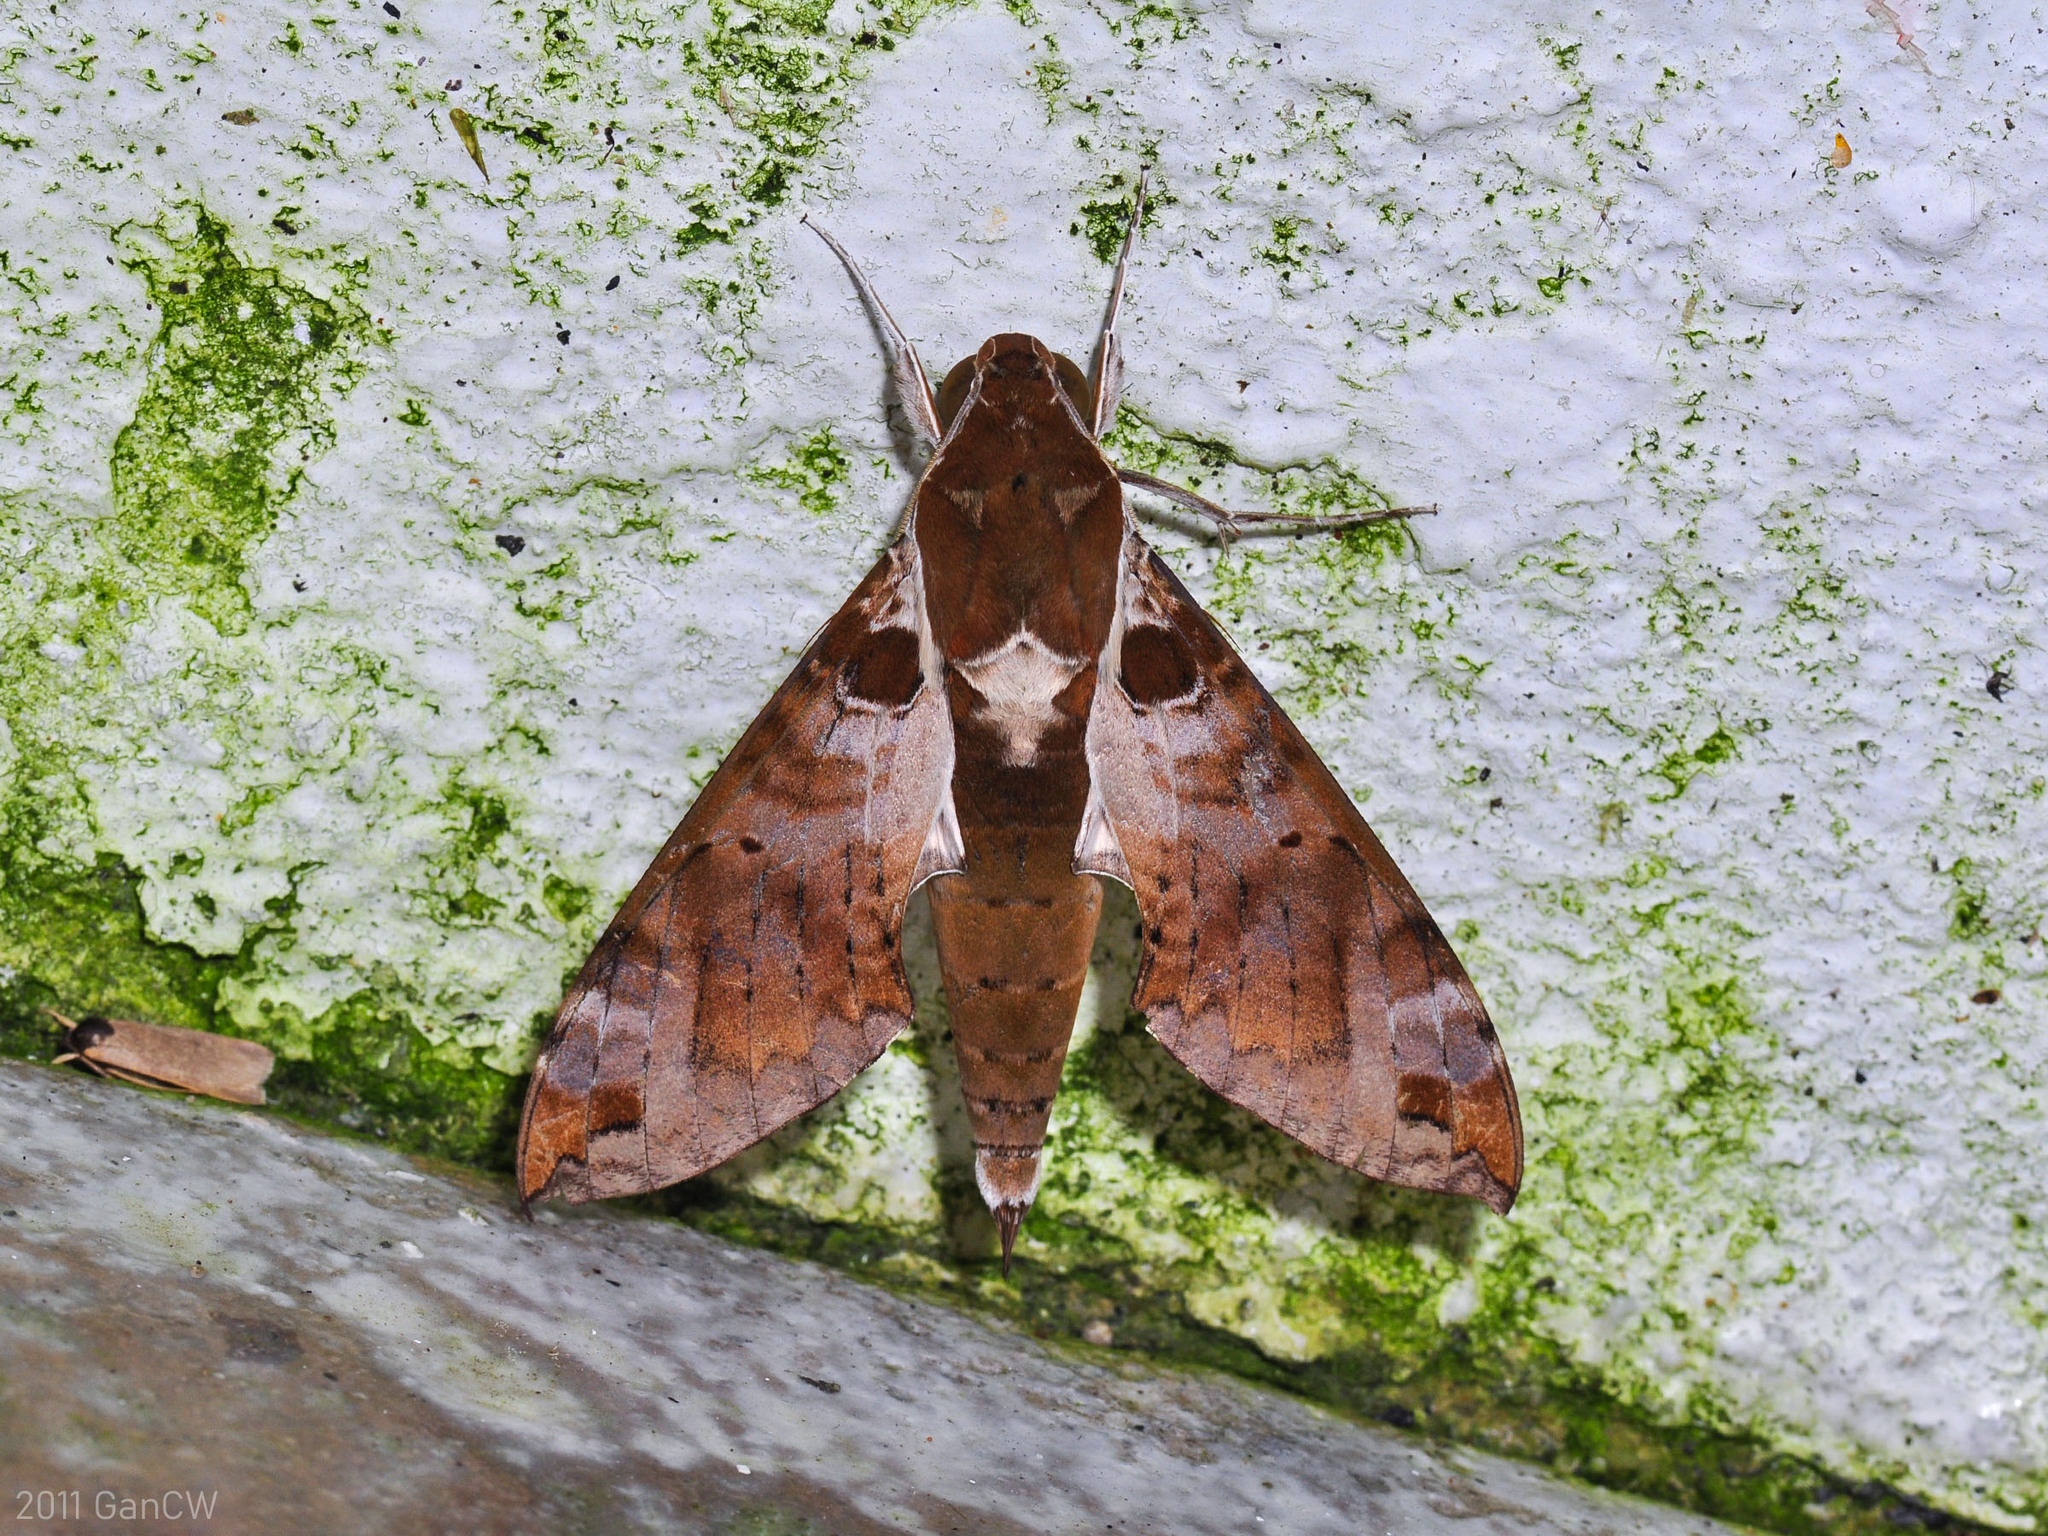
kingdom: Animalia
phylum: Arthropoda
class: Insecta
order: Lepidoptera
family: Sphingidae
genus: Cechenena
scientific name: Cechenena helops
